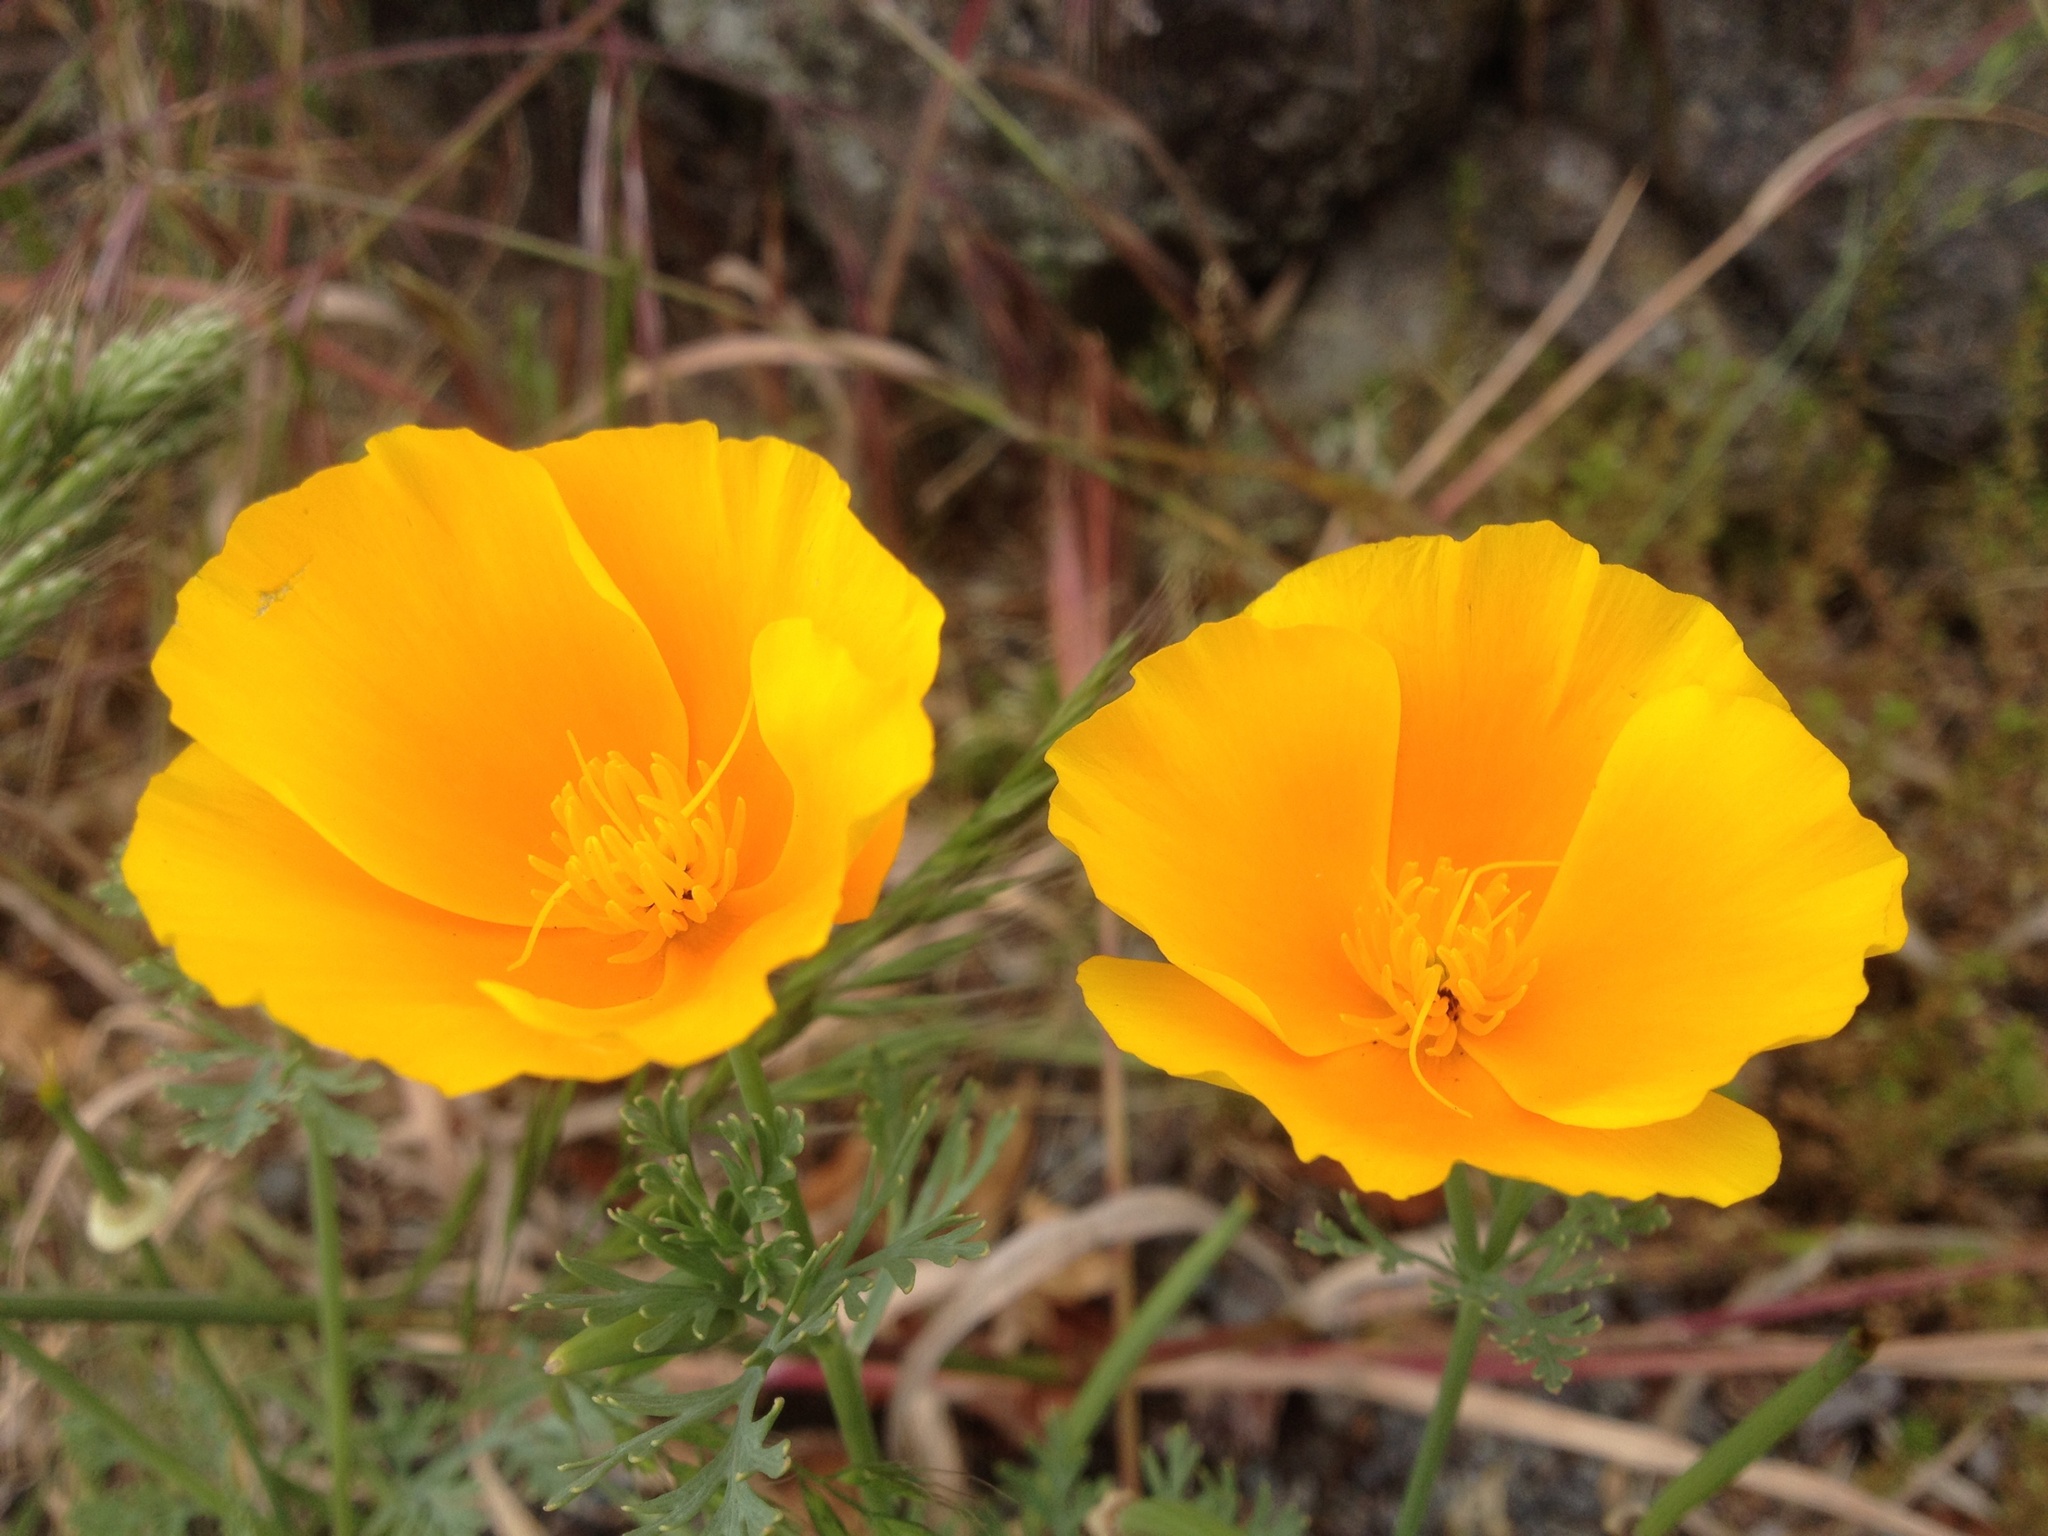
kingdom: Plantae
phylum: Tracheophyta
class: Magnoliopsida
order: Ranunculales
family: Papaveraceae
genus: Eschscholzia
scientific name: Eschscholzia californica
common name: California poppy
